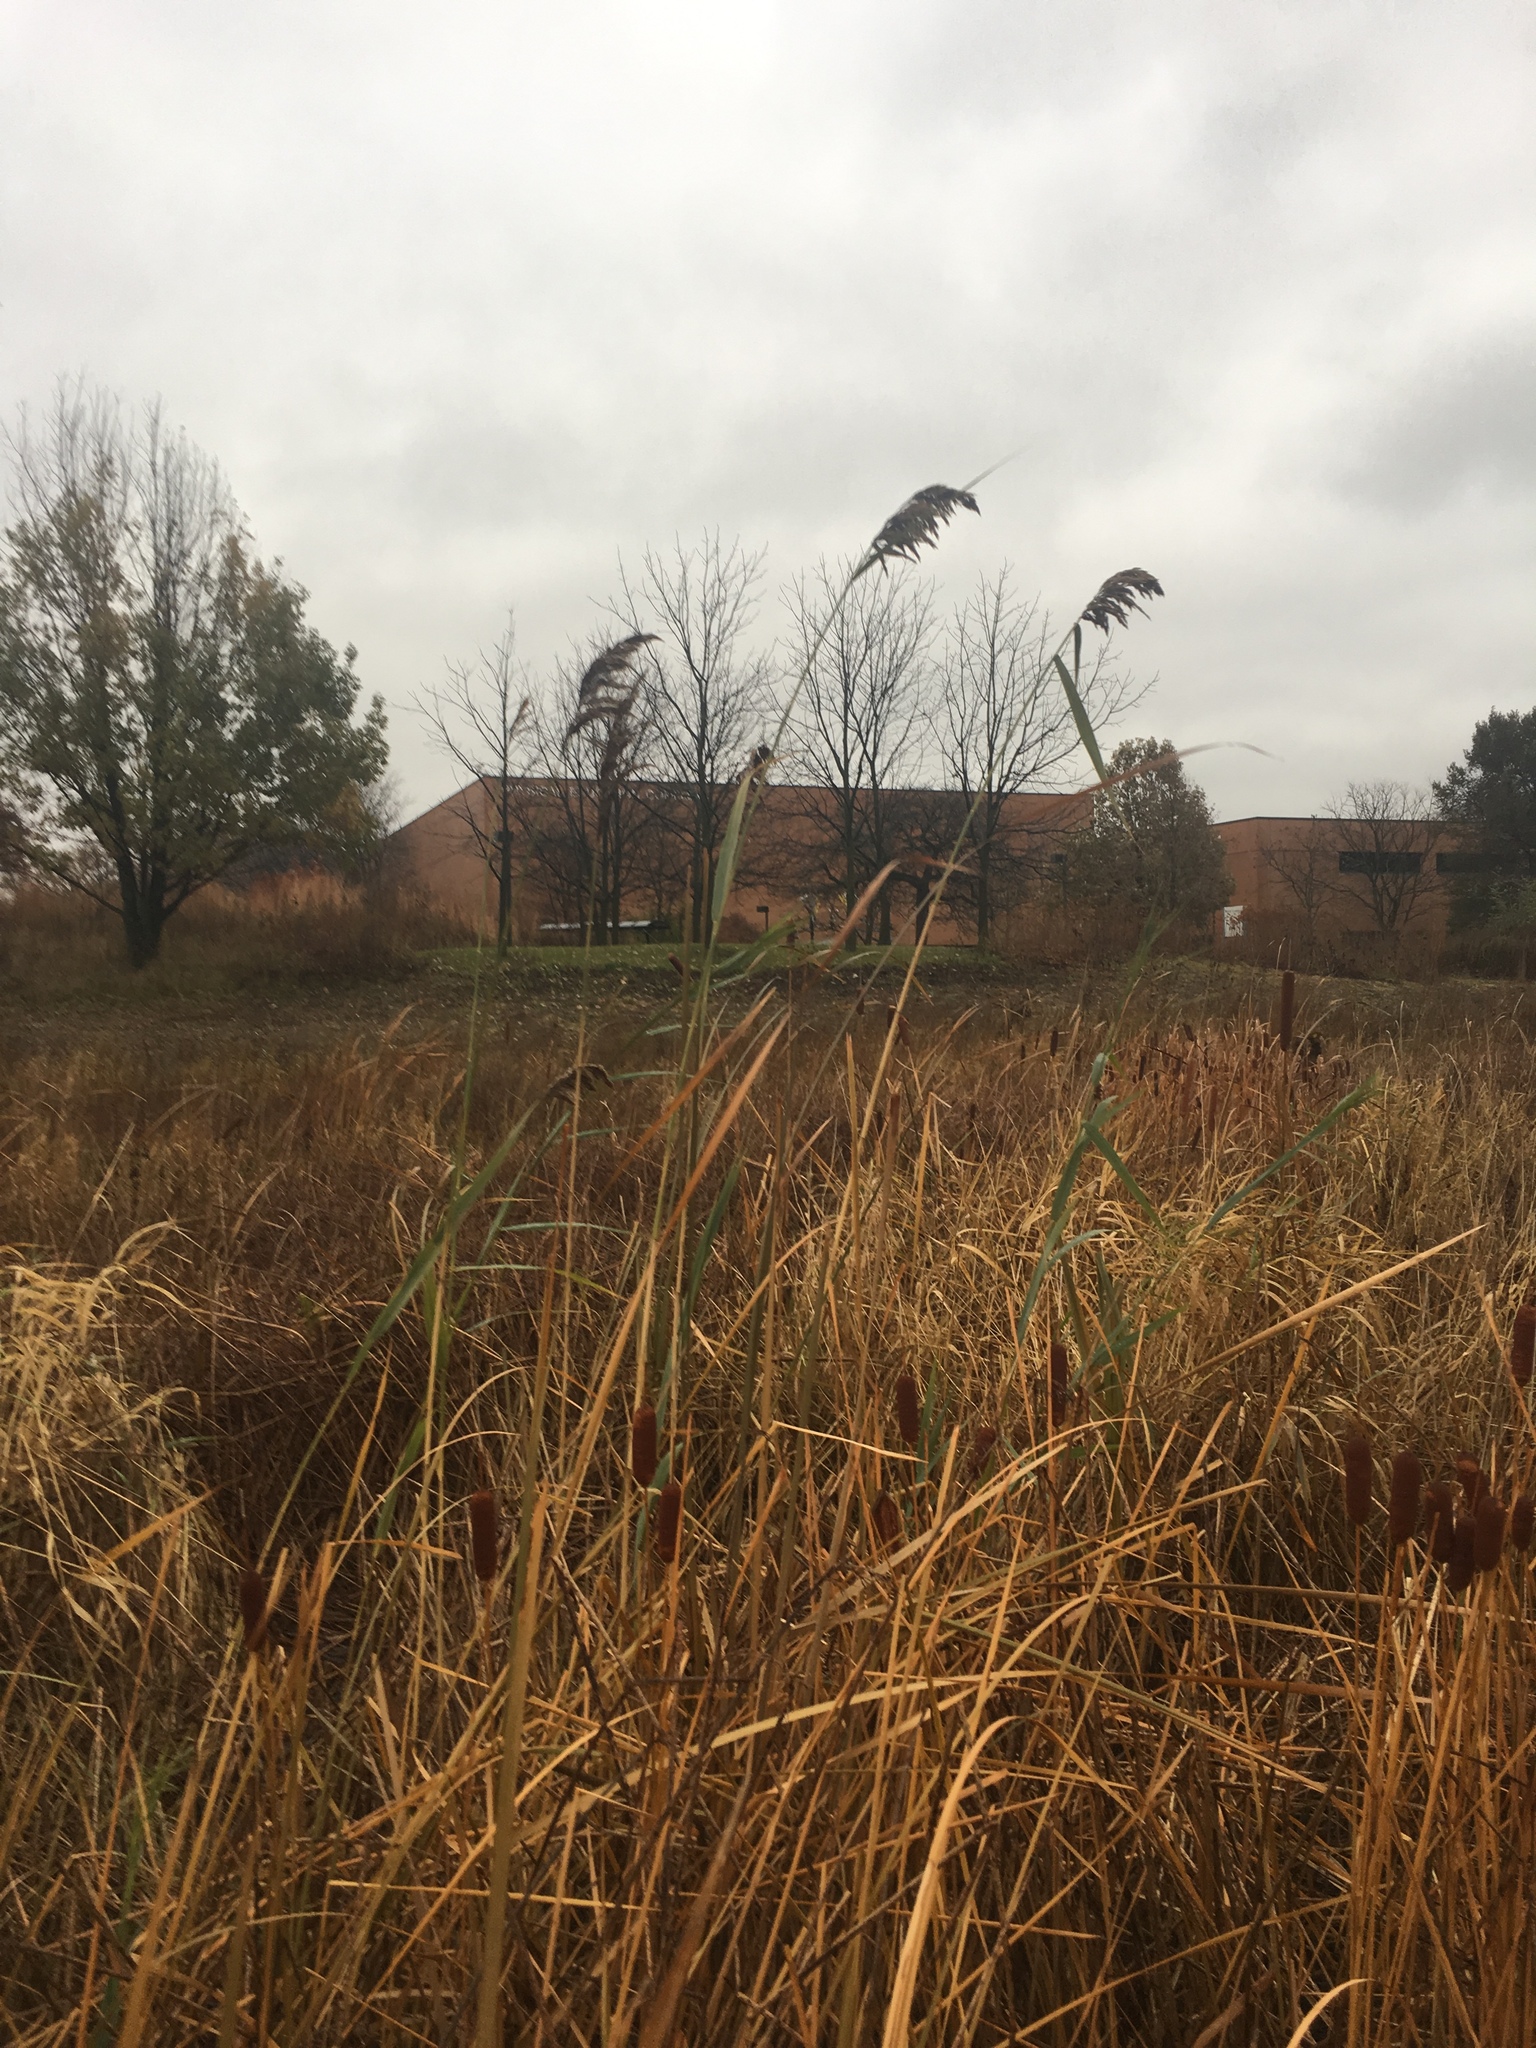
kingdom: Plantae
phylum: Tracheophyta
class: Liliopsida
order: Poales
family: Poaceae
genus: Phragmites
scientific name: Phragmites australis
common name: Common reed
